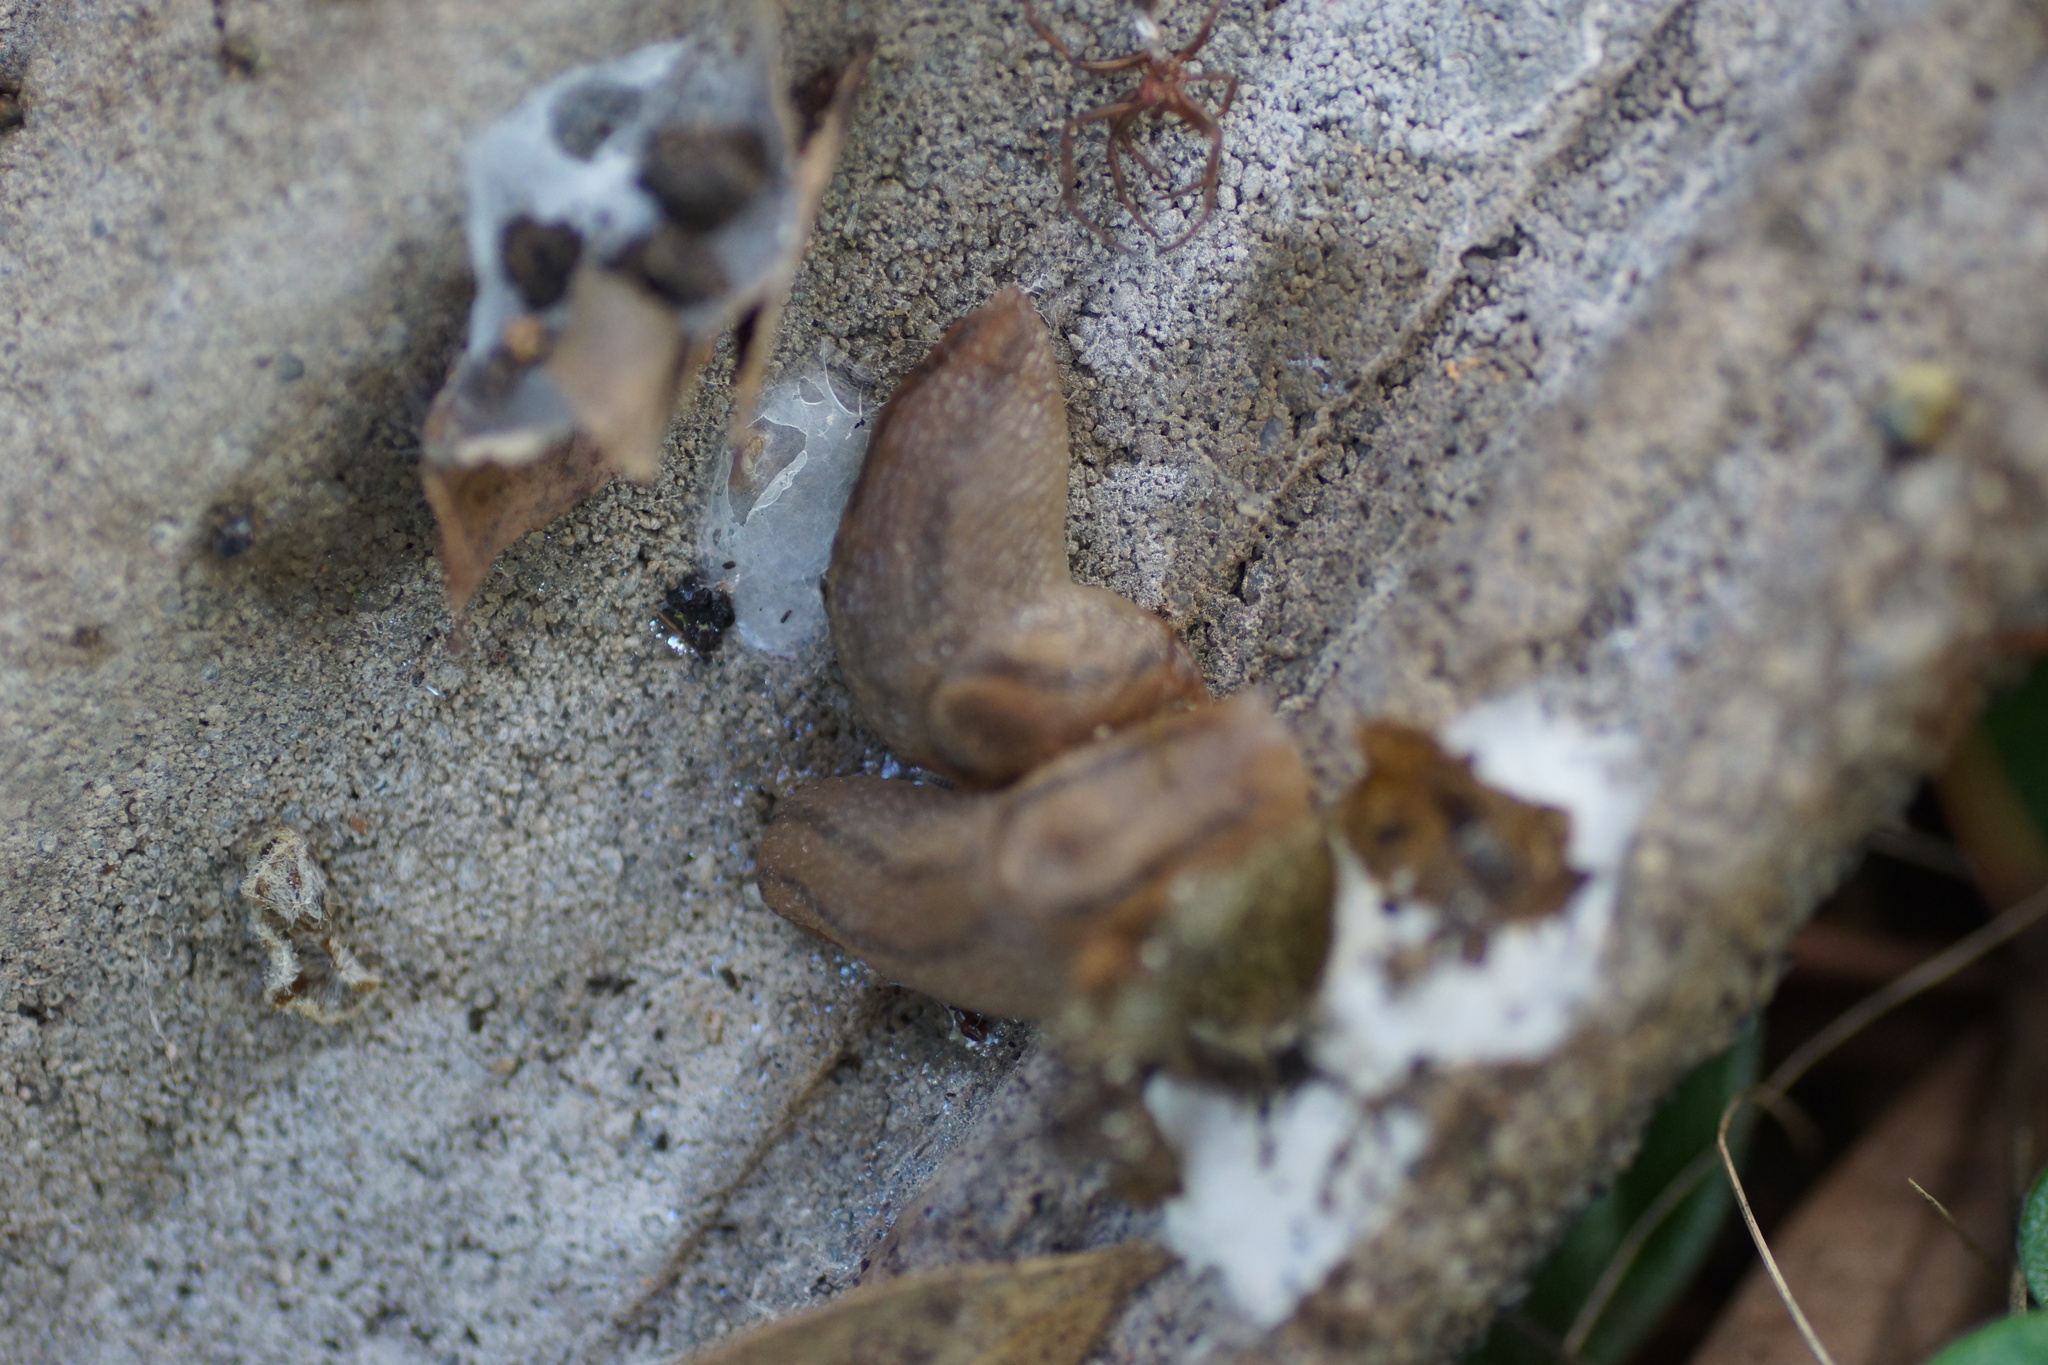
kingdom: Animalia
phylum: Mollusca
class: Gastropoda
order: Stylommatophora
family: Limacidae
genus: Ambigolimax
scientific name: Ambigolimax
